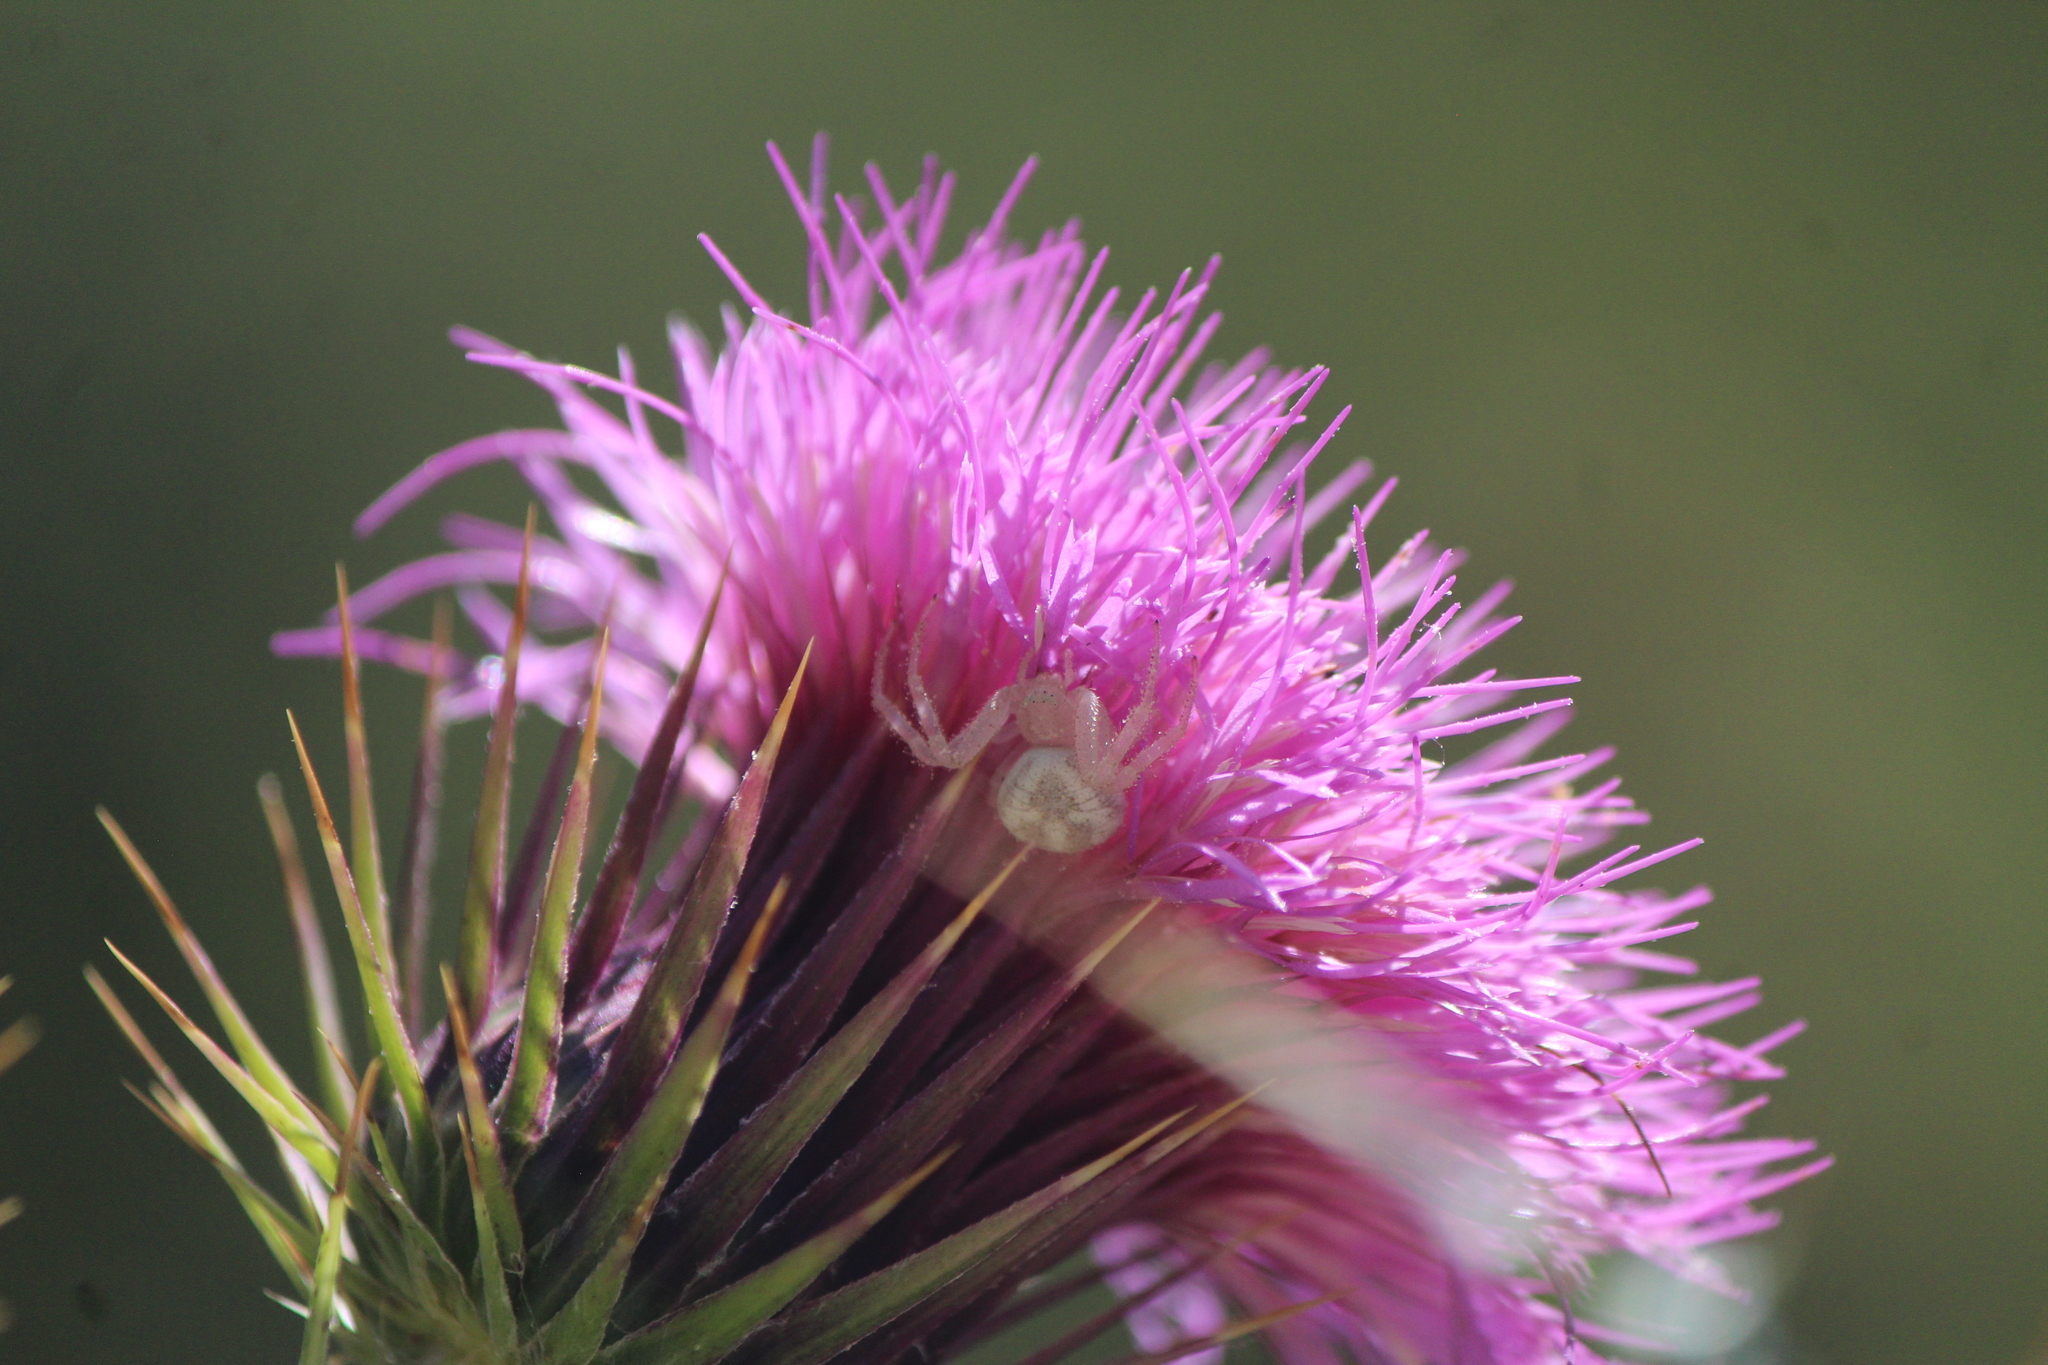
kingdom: Animalia
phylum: Arthropoda
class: Arachnida
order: Araneae
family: Thomisidae
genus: Misumena
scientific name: Misumena vatia
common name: Goldenrod crab spider
